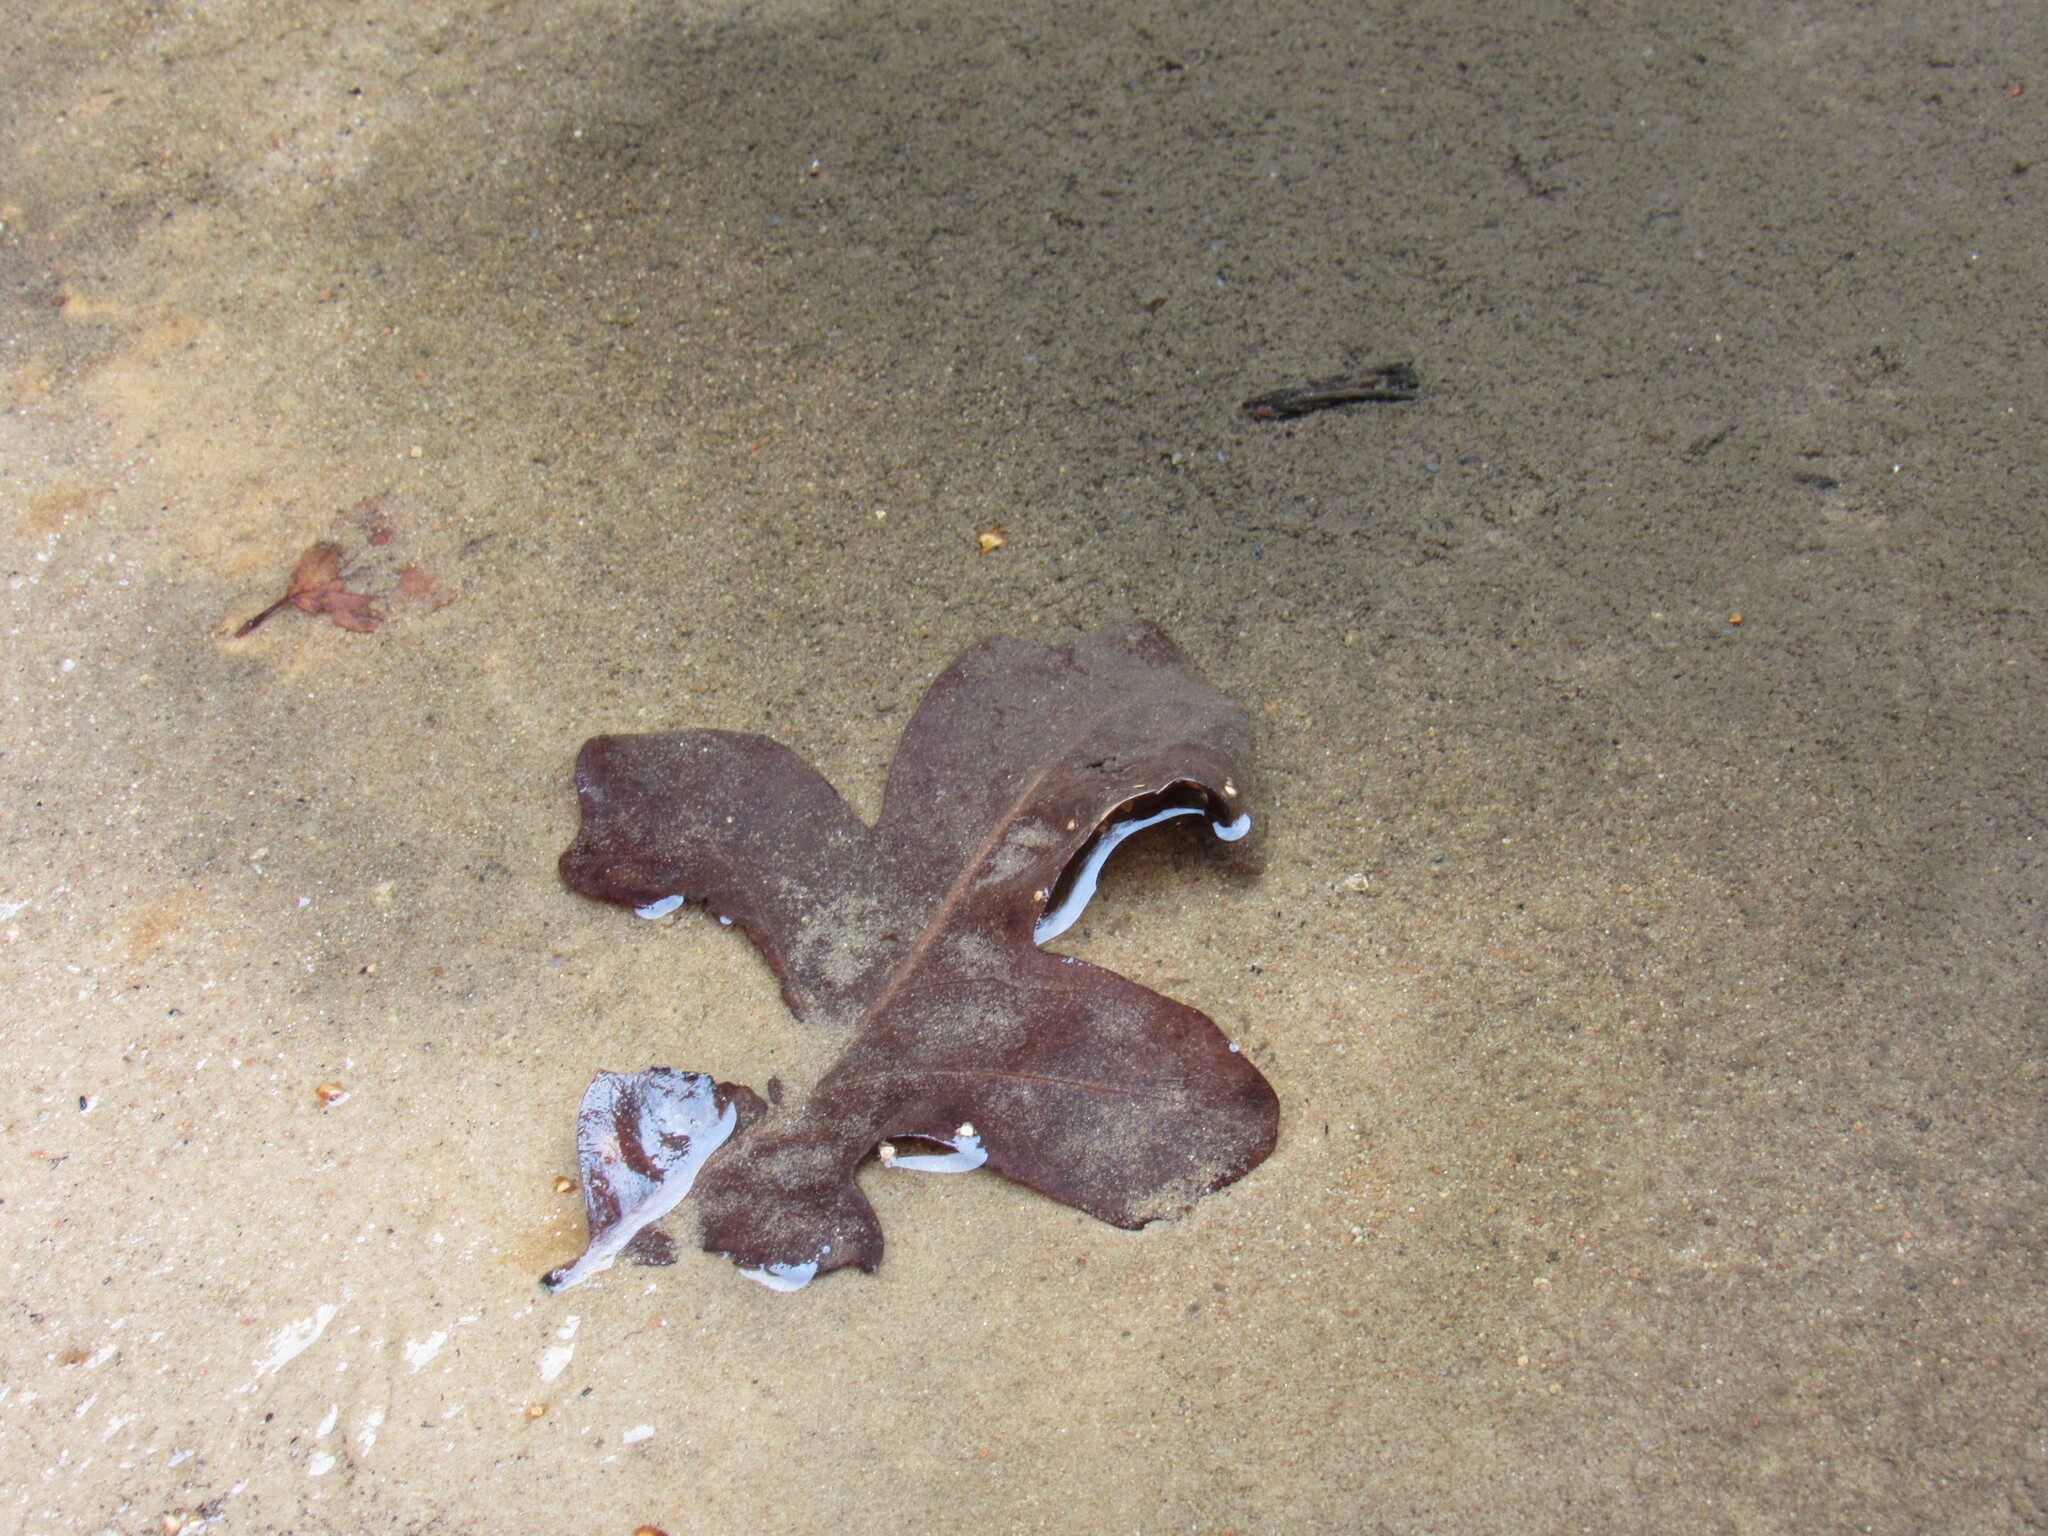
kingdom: Plantae
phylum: Tracheophyta
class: Magnoliopsida
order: Fagales
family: Fagaceae
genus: Quercus
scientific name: Quercus gambelii
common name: Gambel oak
